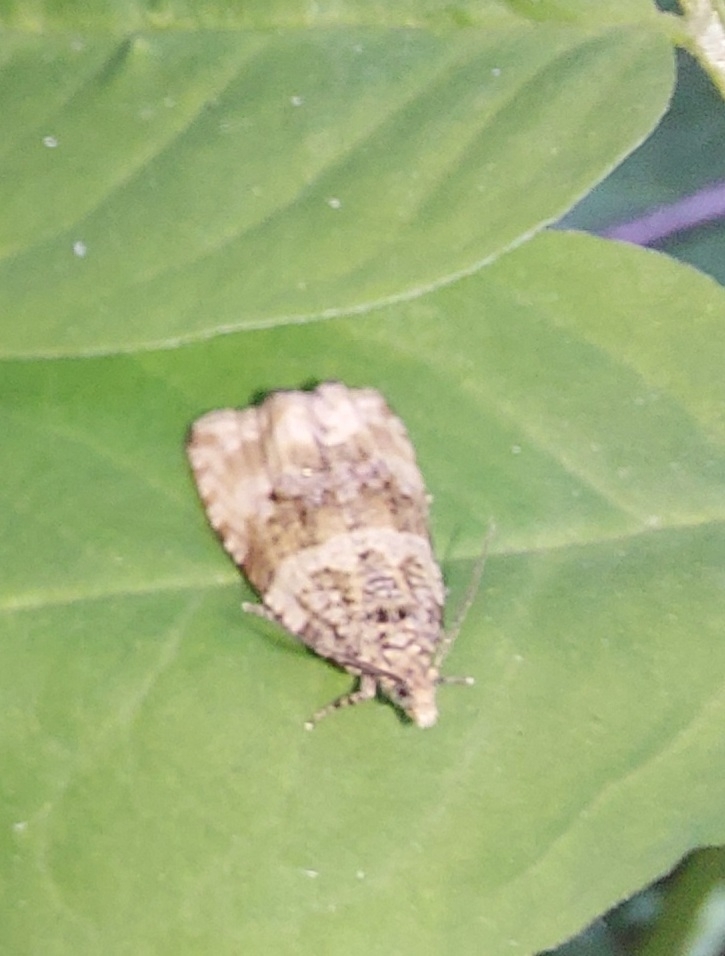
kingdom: Animalia
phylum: Arthropoda
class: Insecta
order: Lepidoptera
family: Tortricidae
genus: Syricoris
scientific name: Syricoris lacunana
